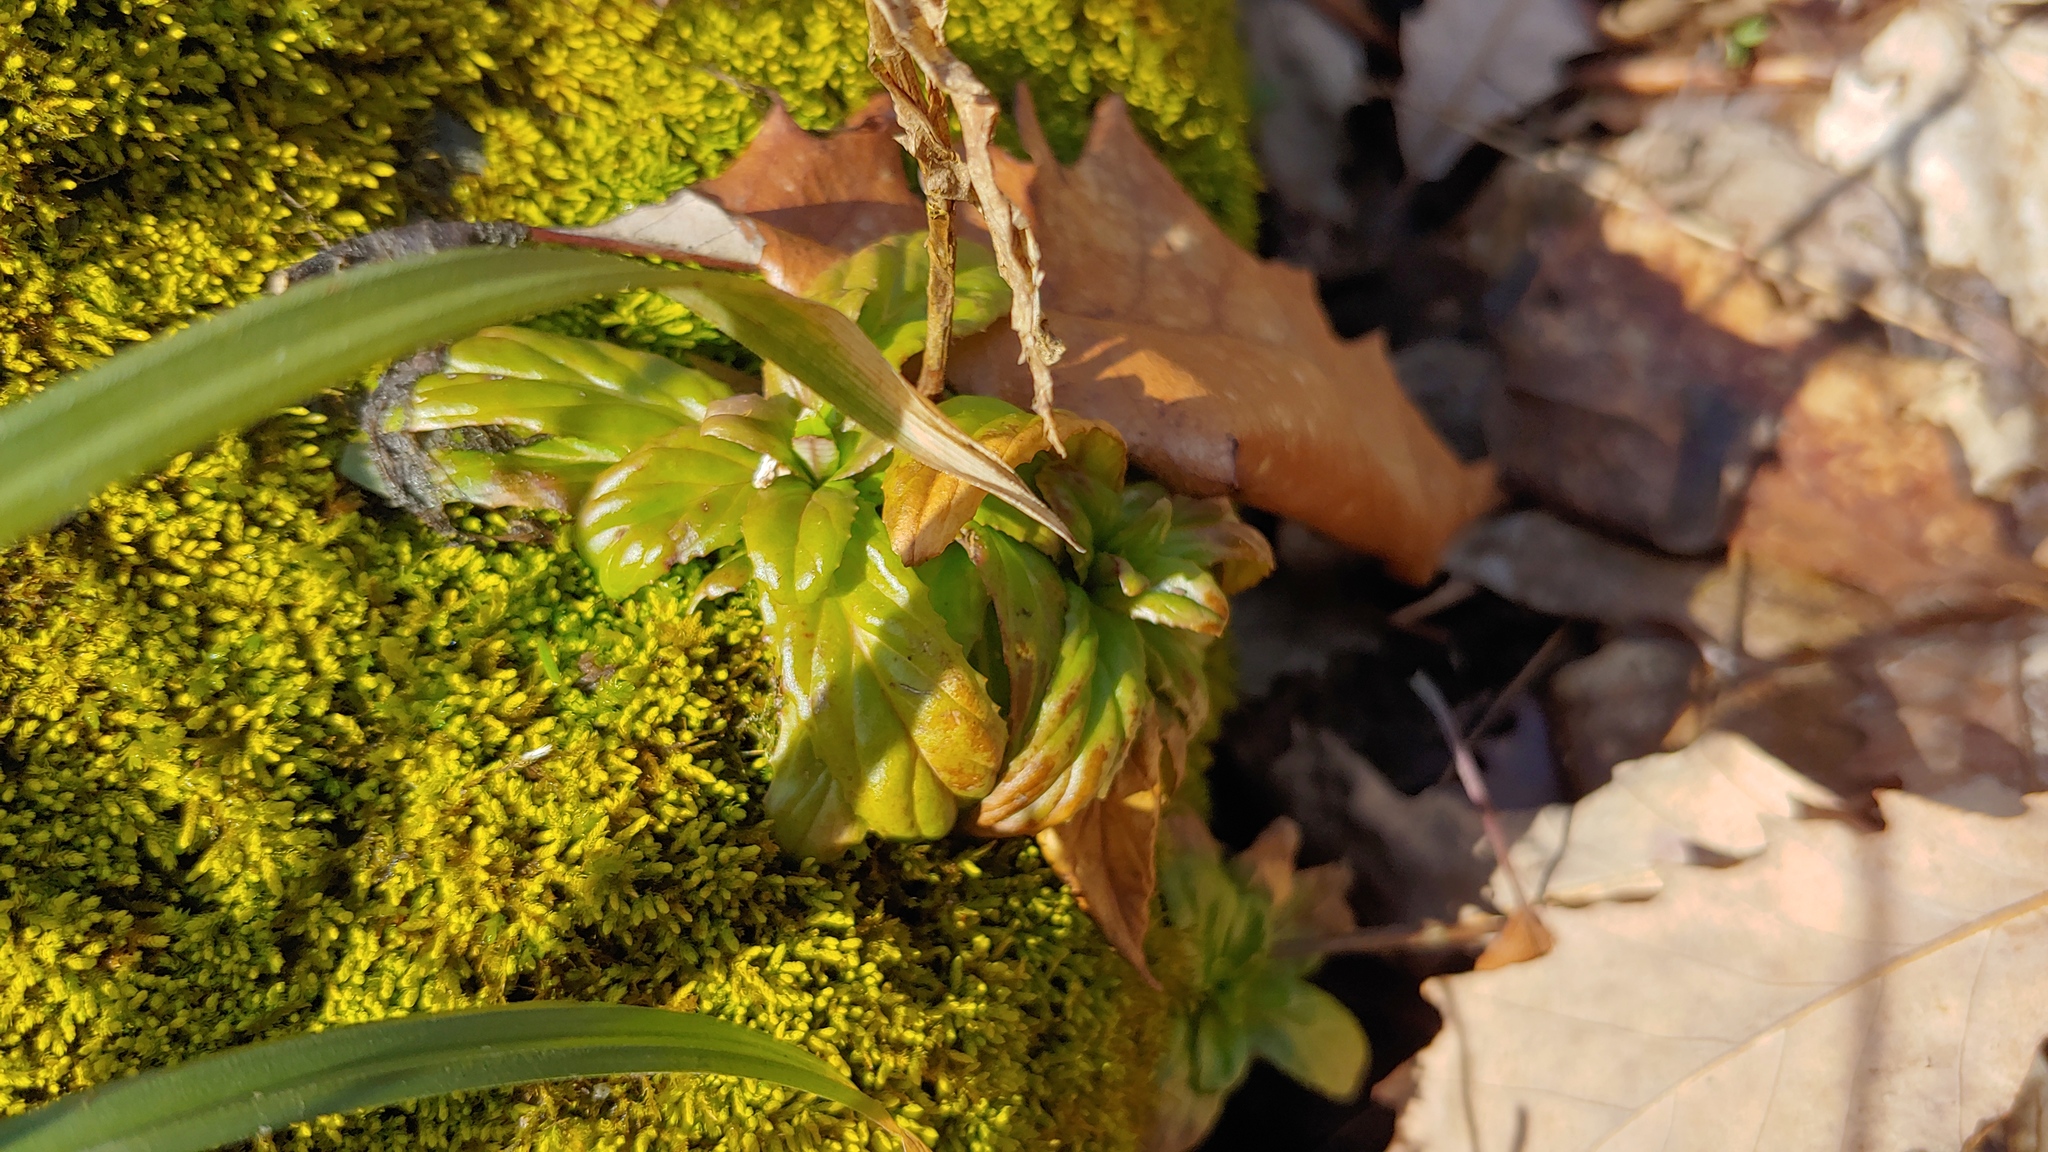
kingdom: Plantae
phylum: Tracheophyta
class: Magnoliopsida
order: Myrtales
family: Onagraceae
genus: Epilobium
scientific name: Epilobium coloratum
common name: Bronze willowherb
